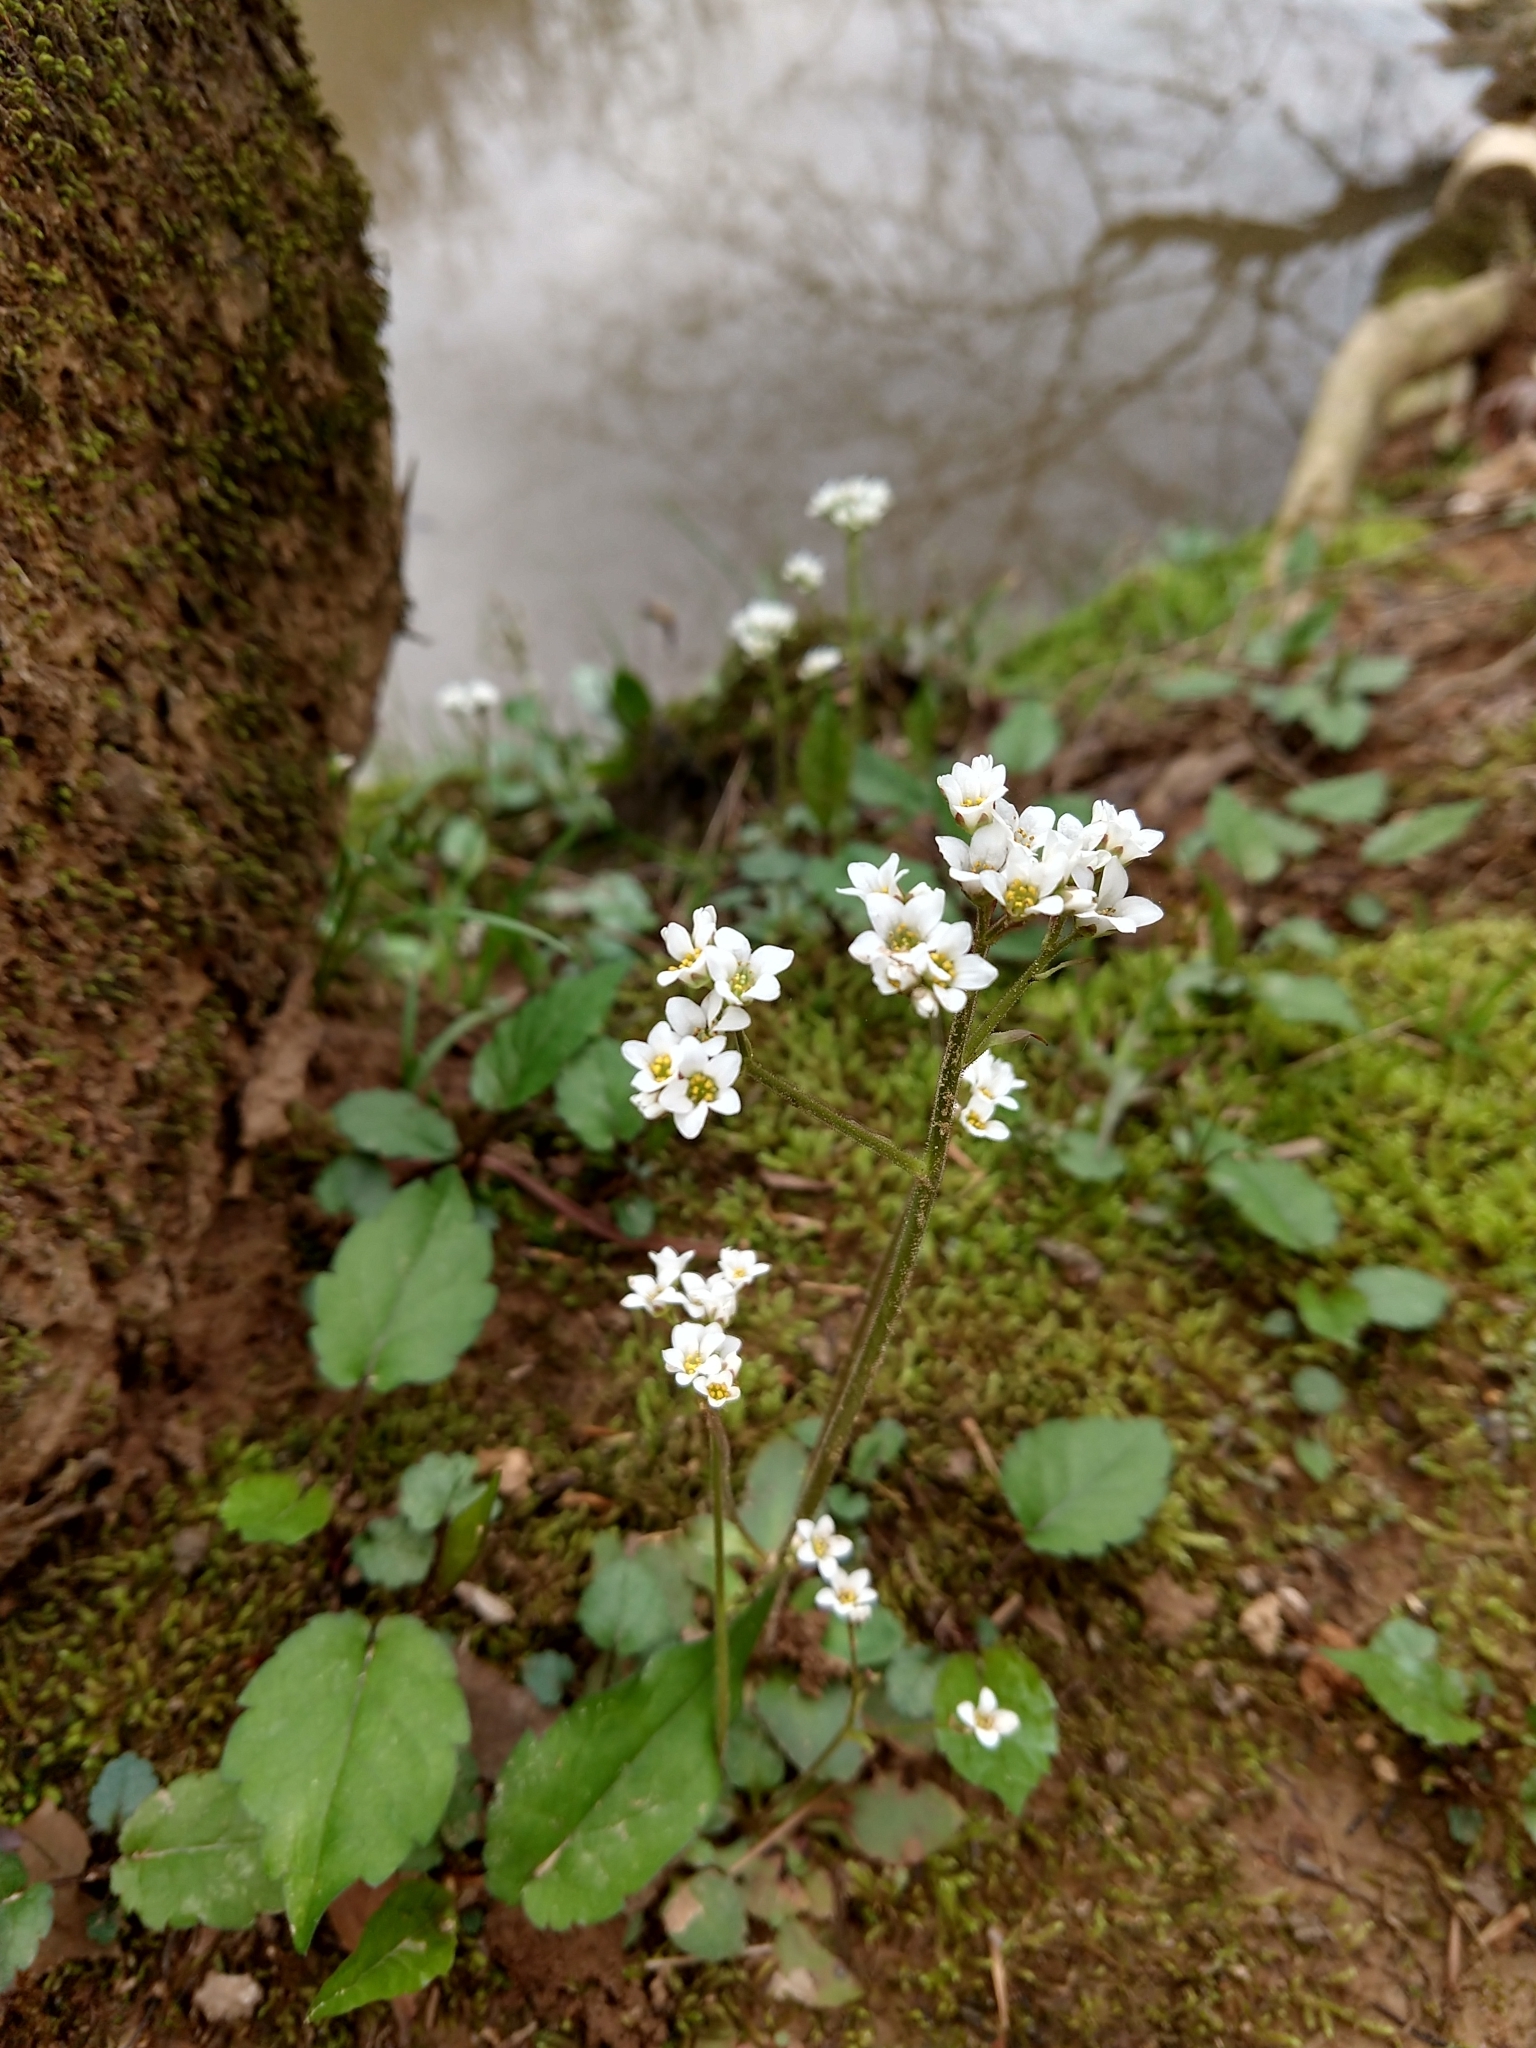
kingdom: Plantae
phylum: Tracheophyta
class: Magnoliopsida
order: Saxifragales
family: Saxifragaceae
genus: Micranthes
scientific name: Micranthes virginiensis
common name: Early saxifrage
